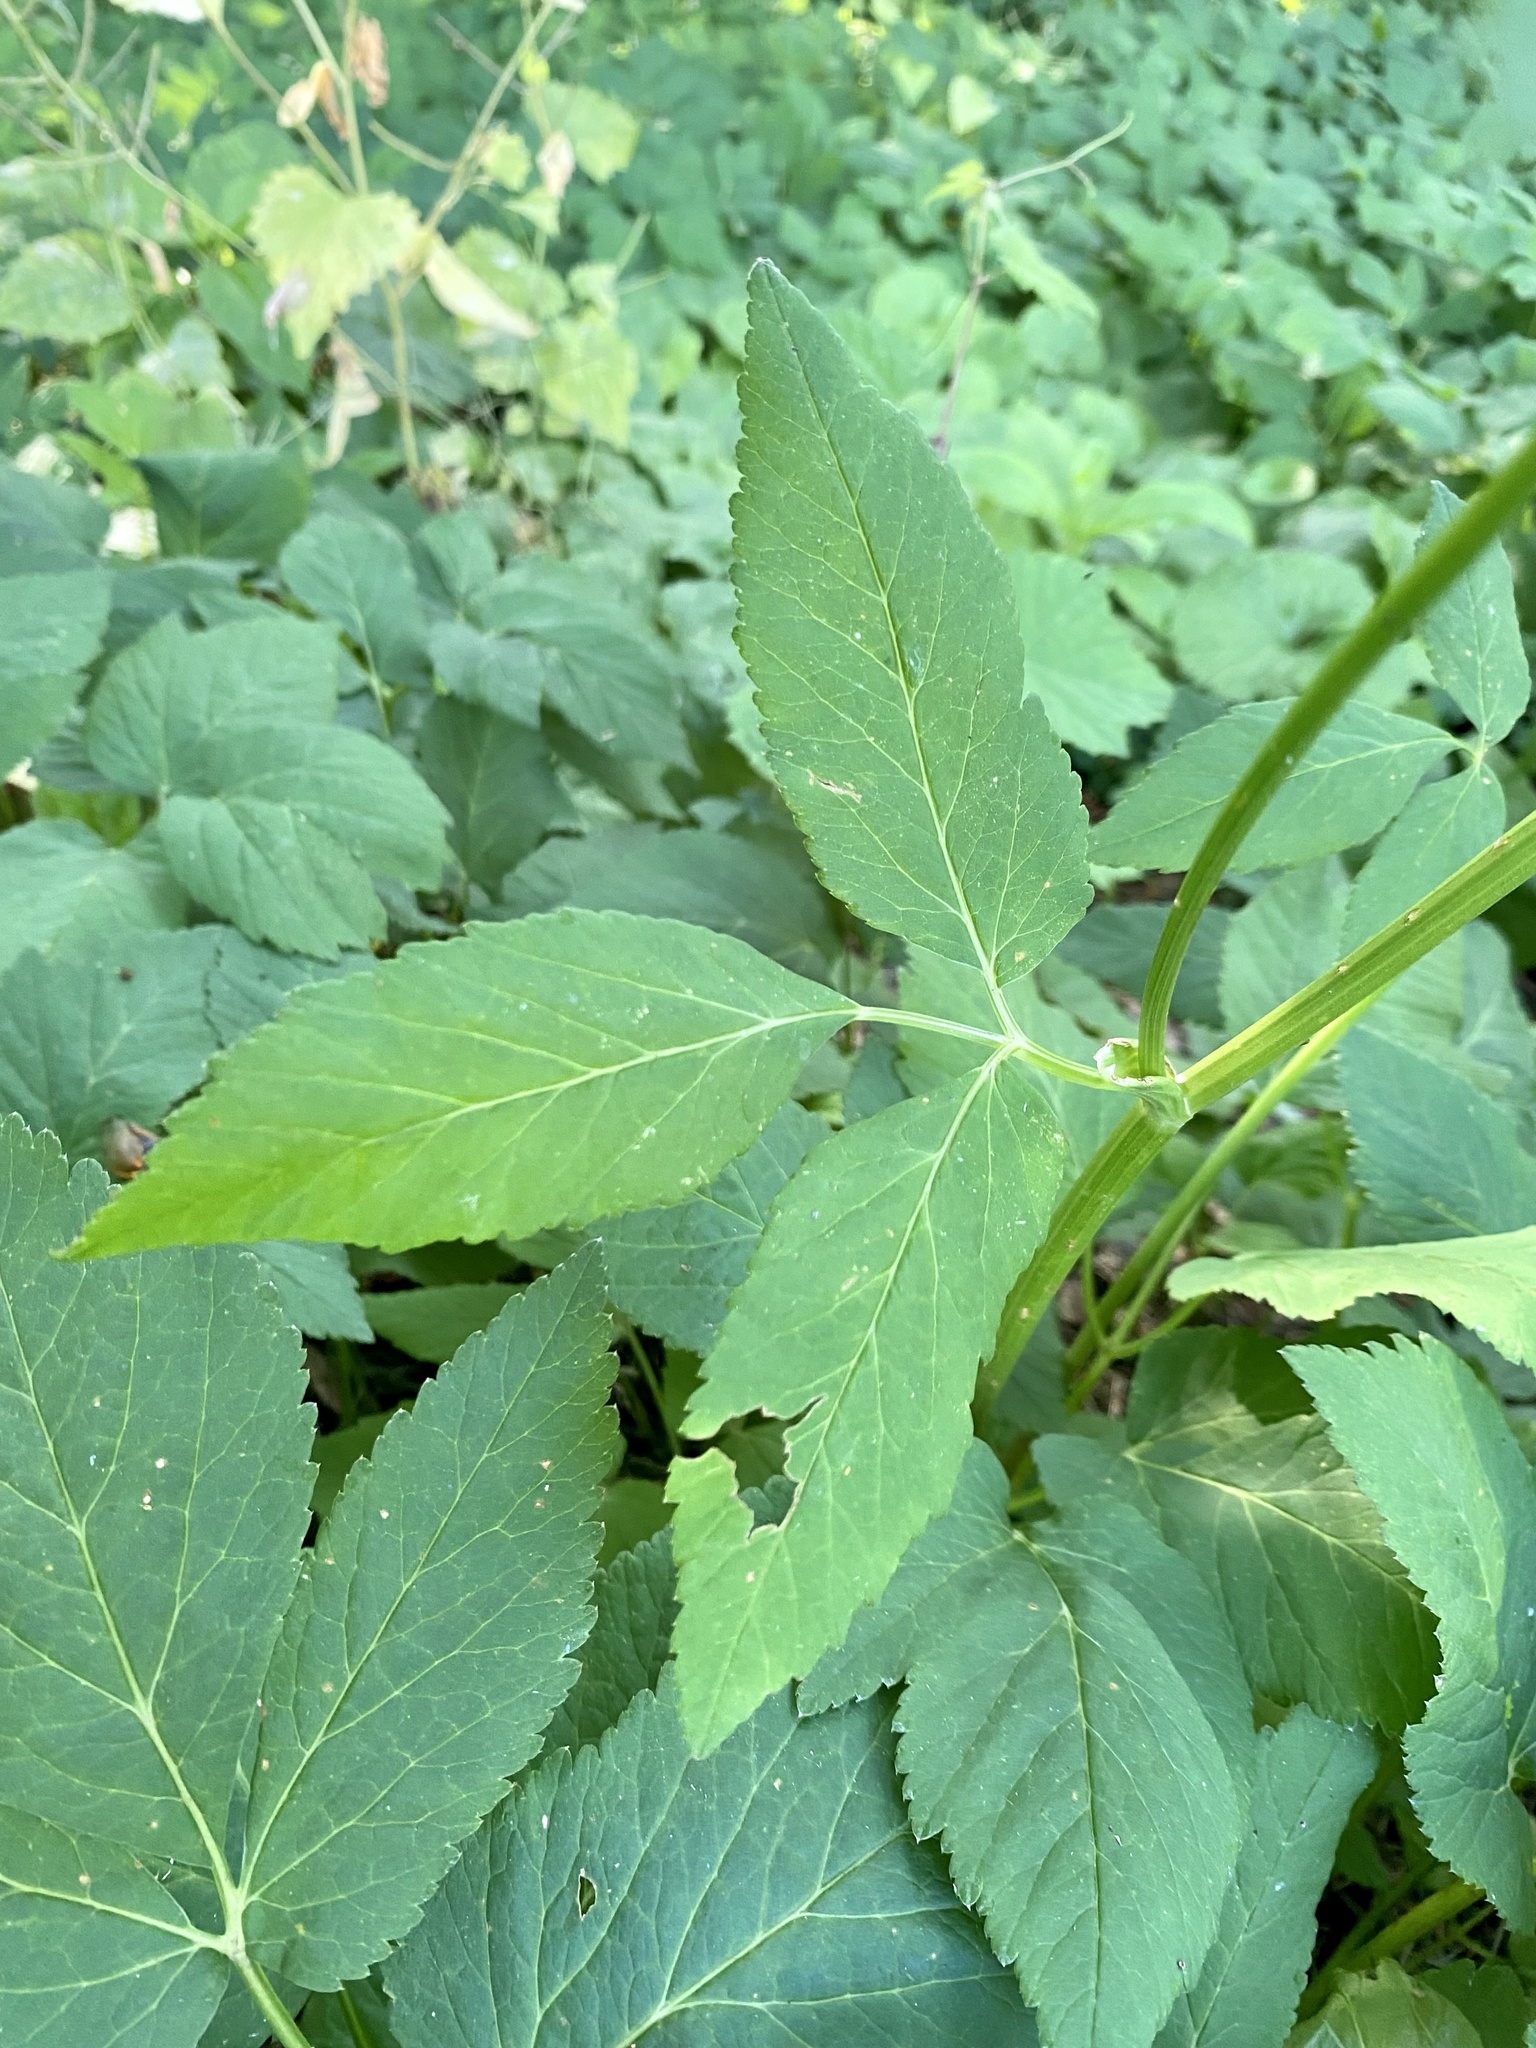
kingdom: Plantae
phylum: Tracheophyta
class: Magnoliopsida
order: Apiales
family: Apiaceae
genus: Aegopodium
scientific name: Aegopodium podagraria
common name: Ground-elder
